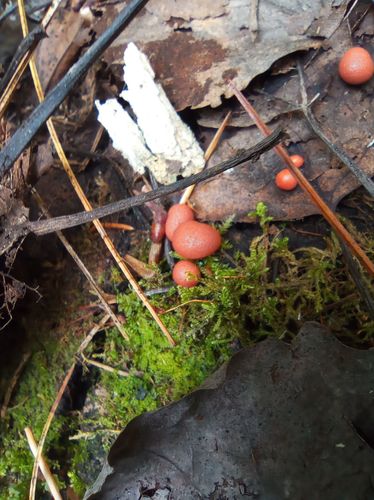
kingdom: Protozoa
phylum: Mycetozoa
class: Myxomycetes
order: Cribrariales
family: Tubiferaceae
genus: Lycogala
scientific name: Lycogala epidendrum
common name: Wolf's milk
